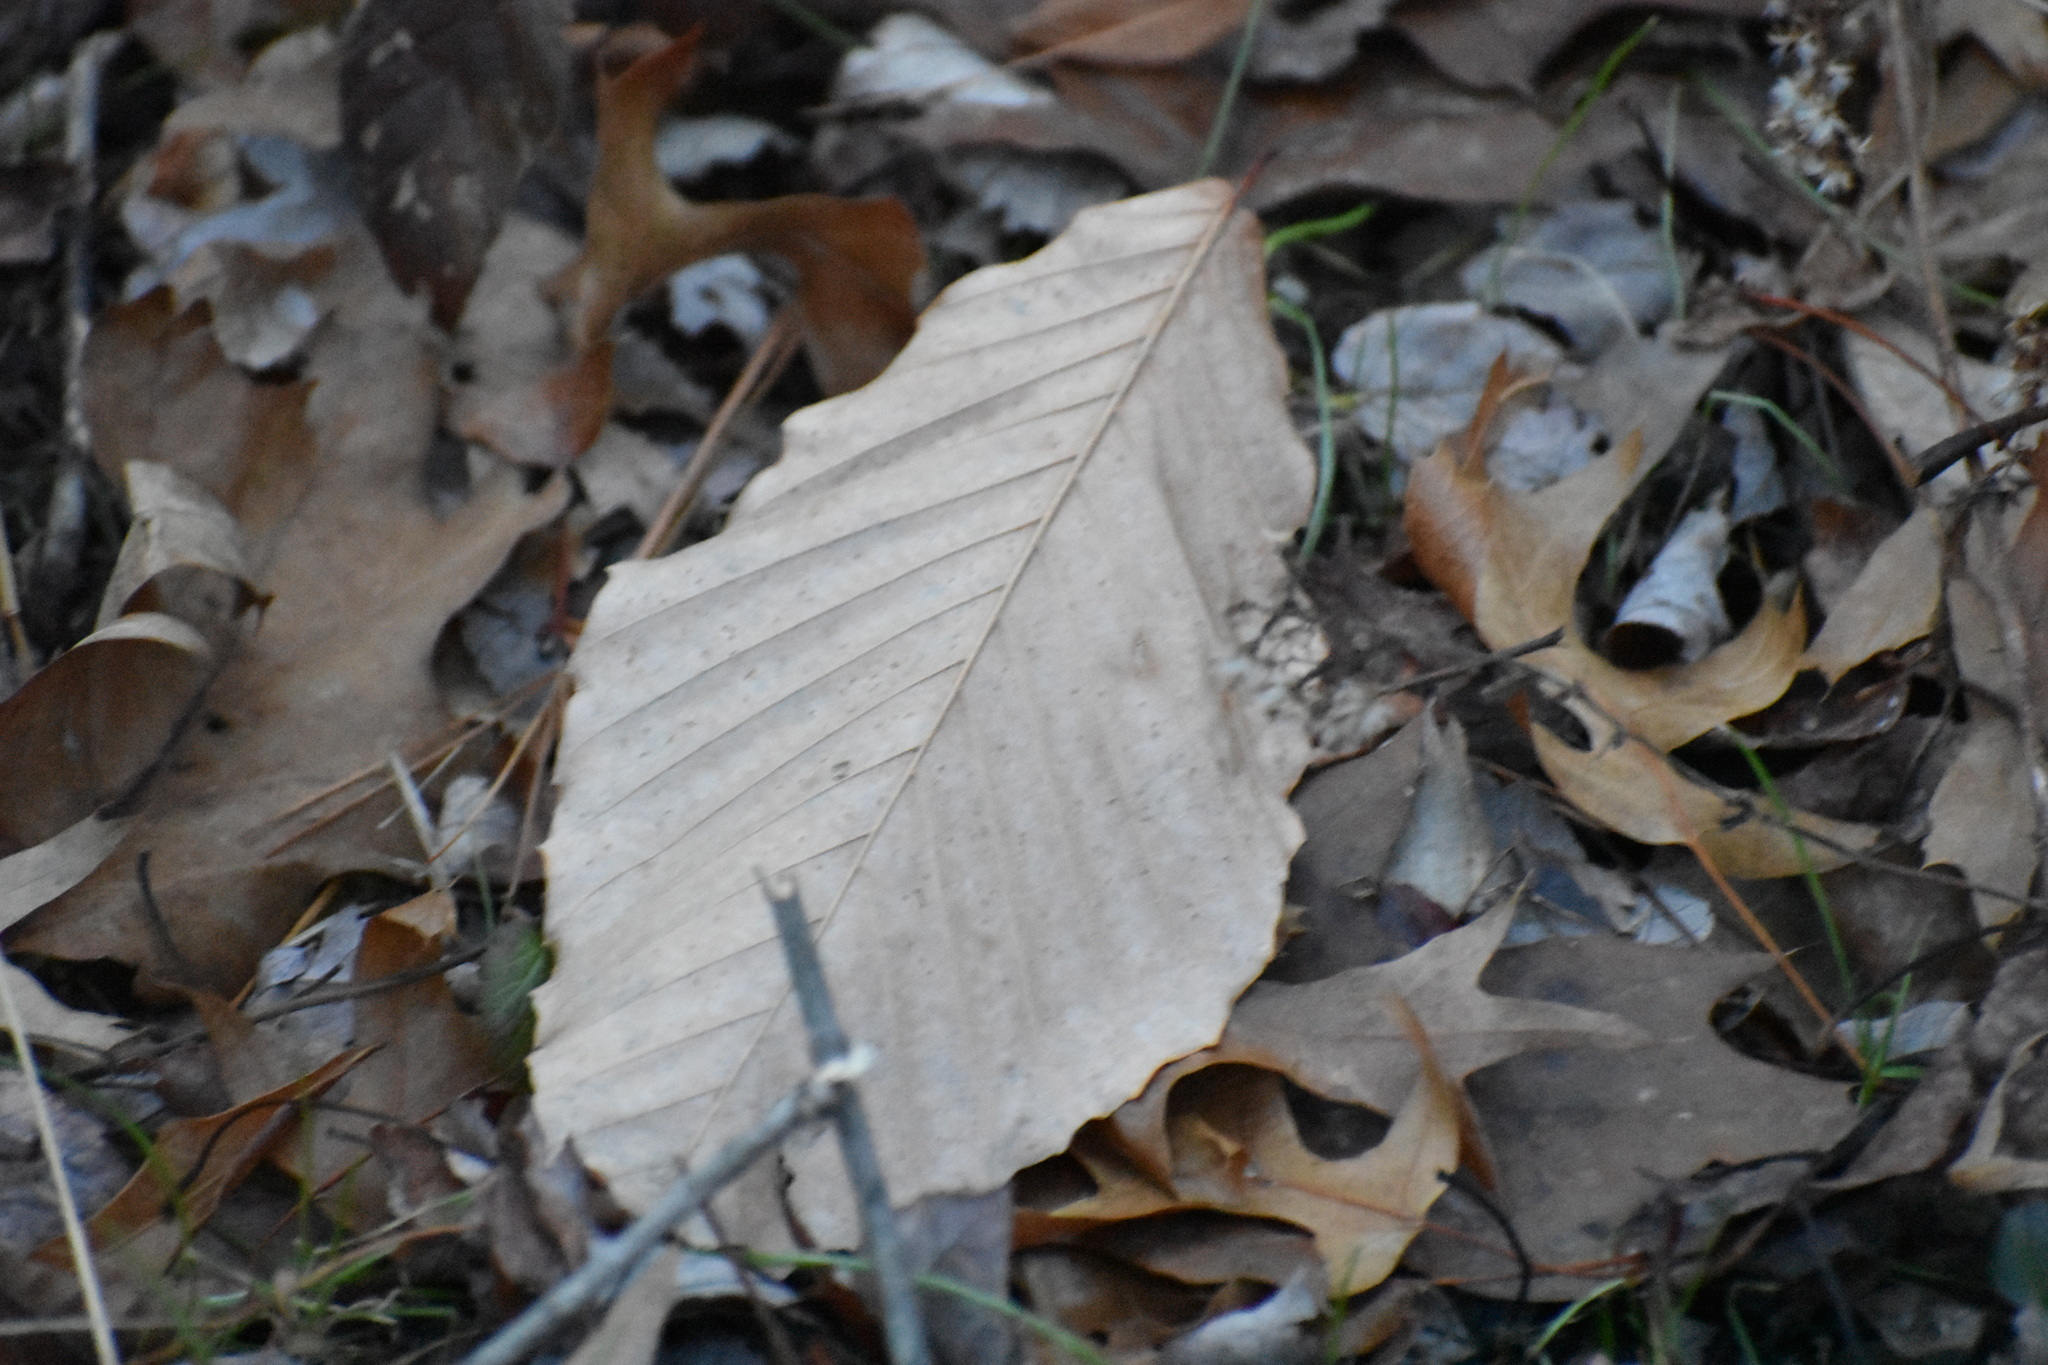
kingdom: Plantae
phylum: Tracheophyta
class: Magnoliopsida
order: Fagales
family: Fagaceae
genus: Fagus
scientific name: Fagus grandifolia
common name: American beech
